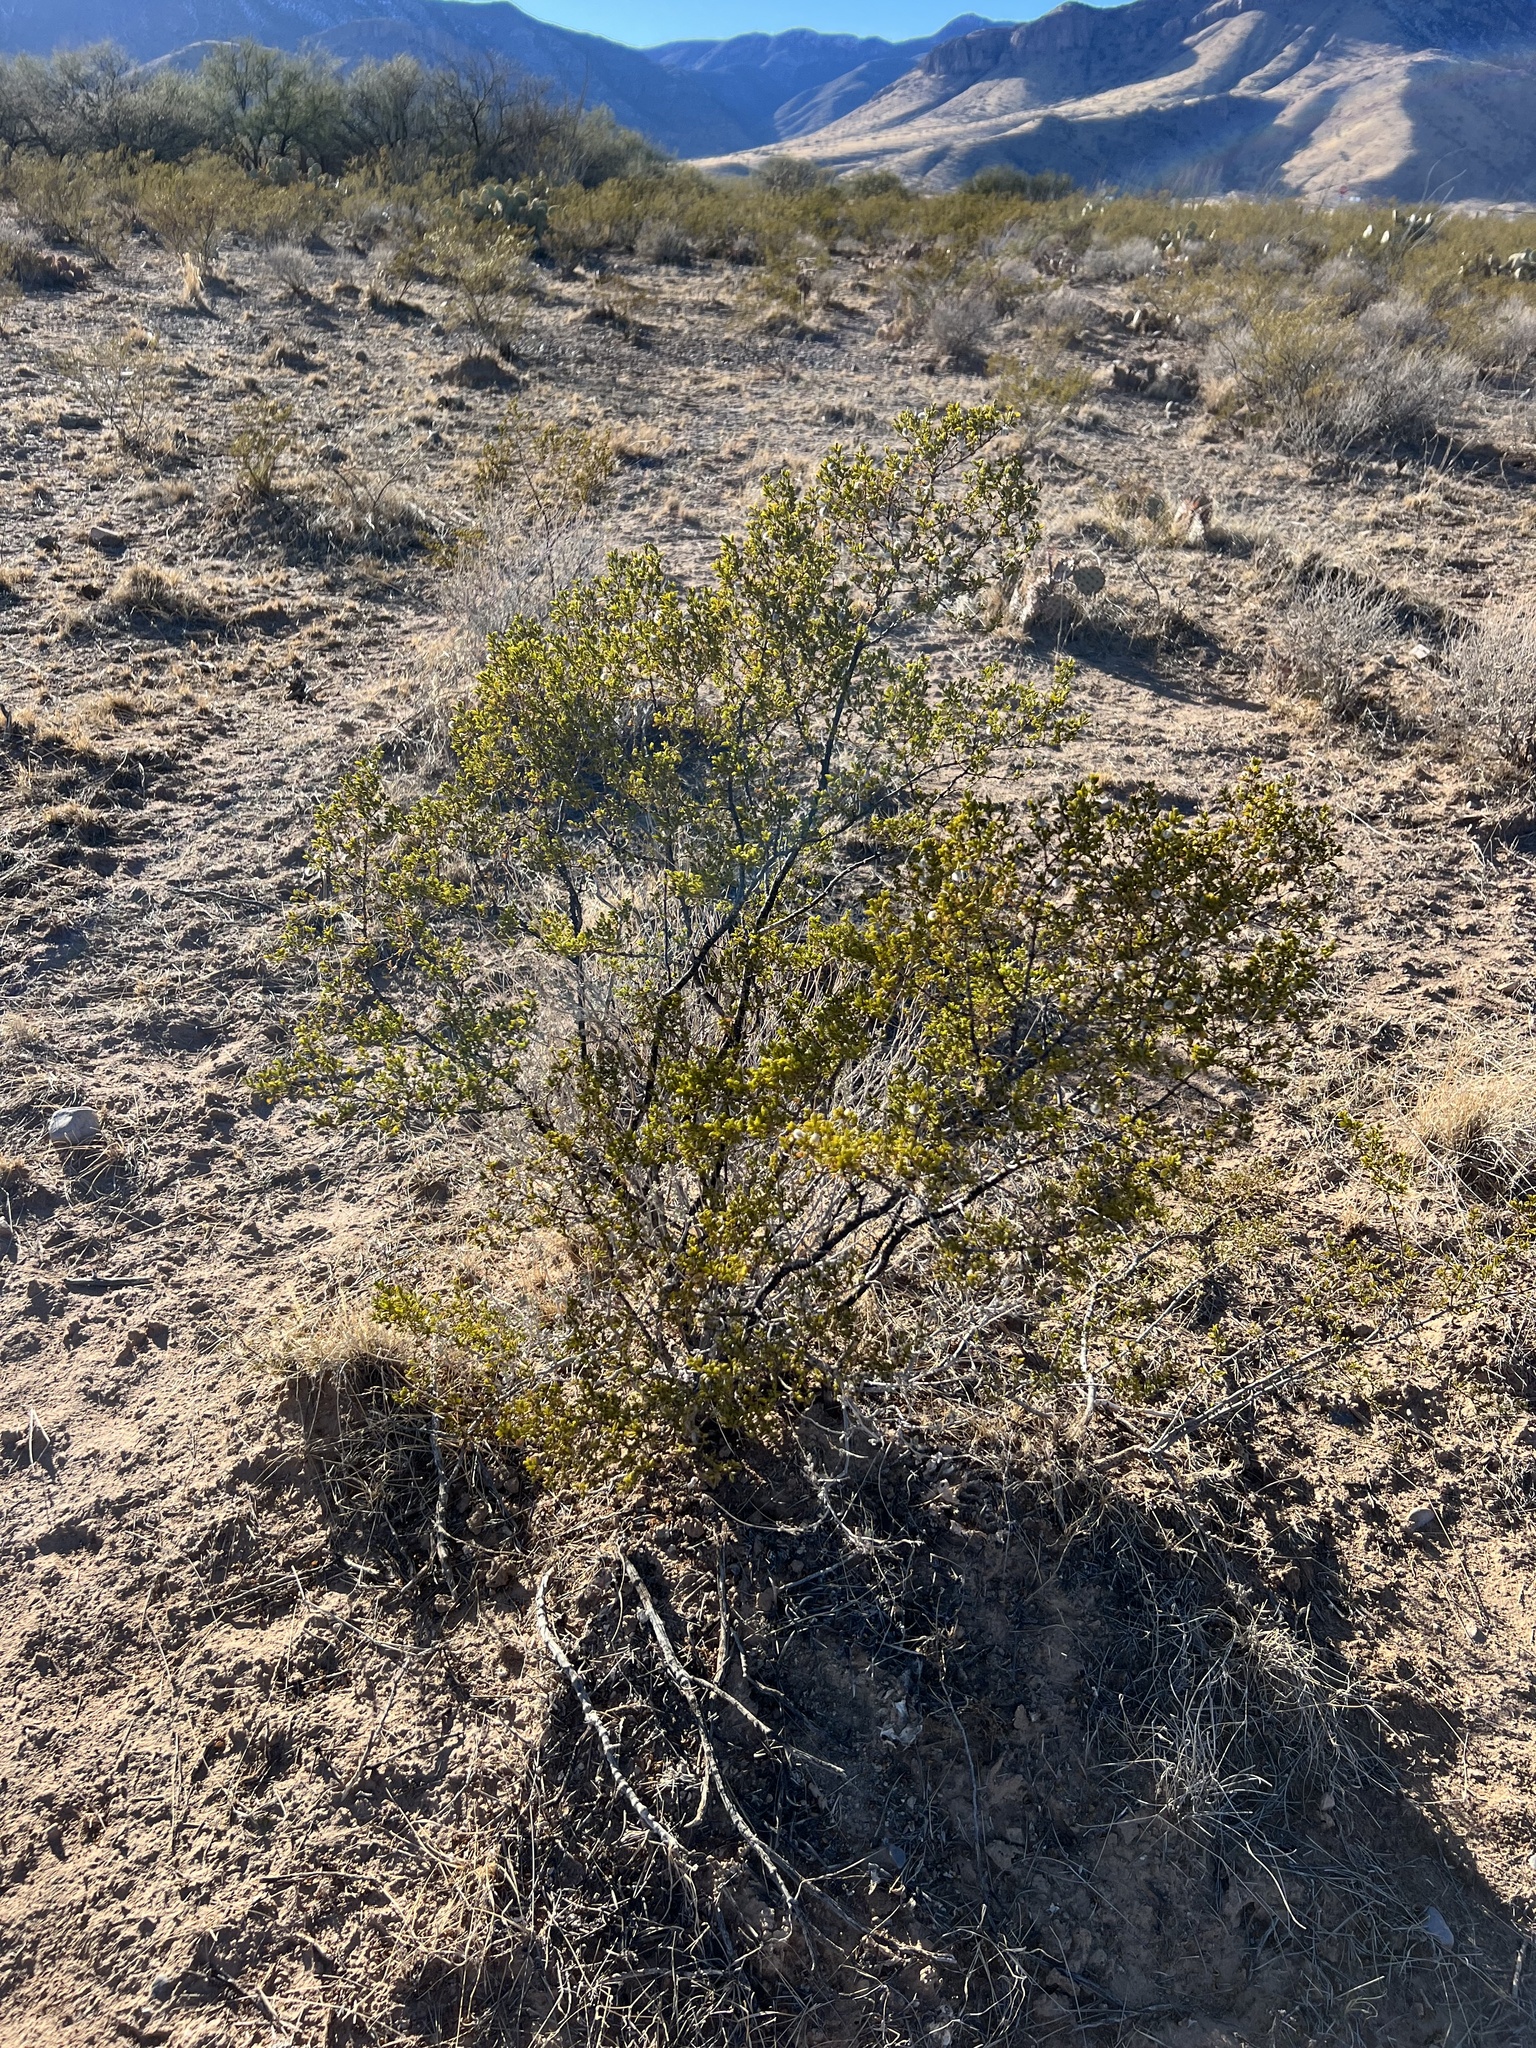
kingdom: Plantae
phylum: Tracheophyta
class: Magnoliopsida
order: Zygophyllales
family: Zygophyllaceae
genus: Larrea
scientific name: Larrea tridentata
